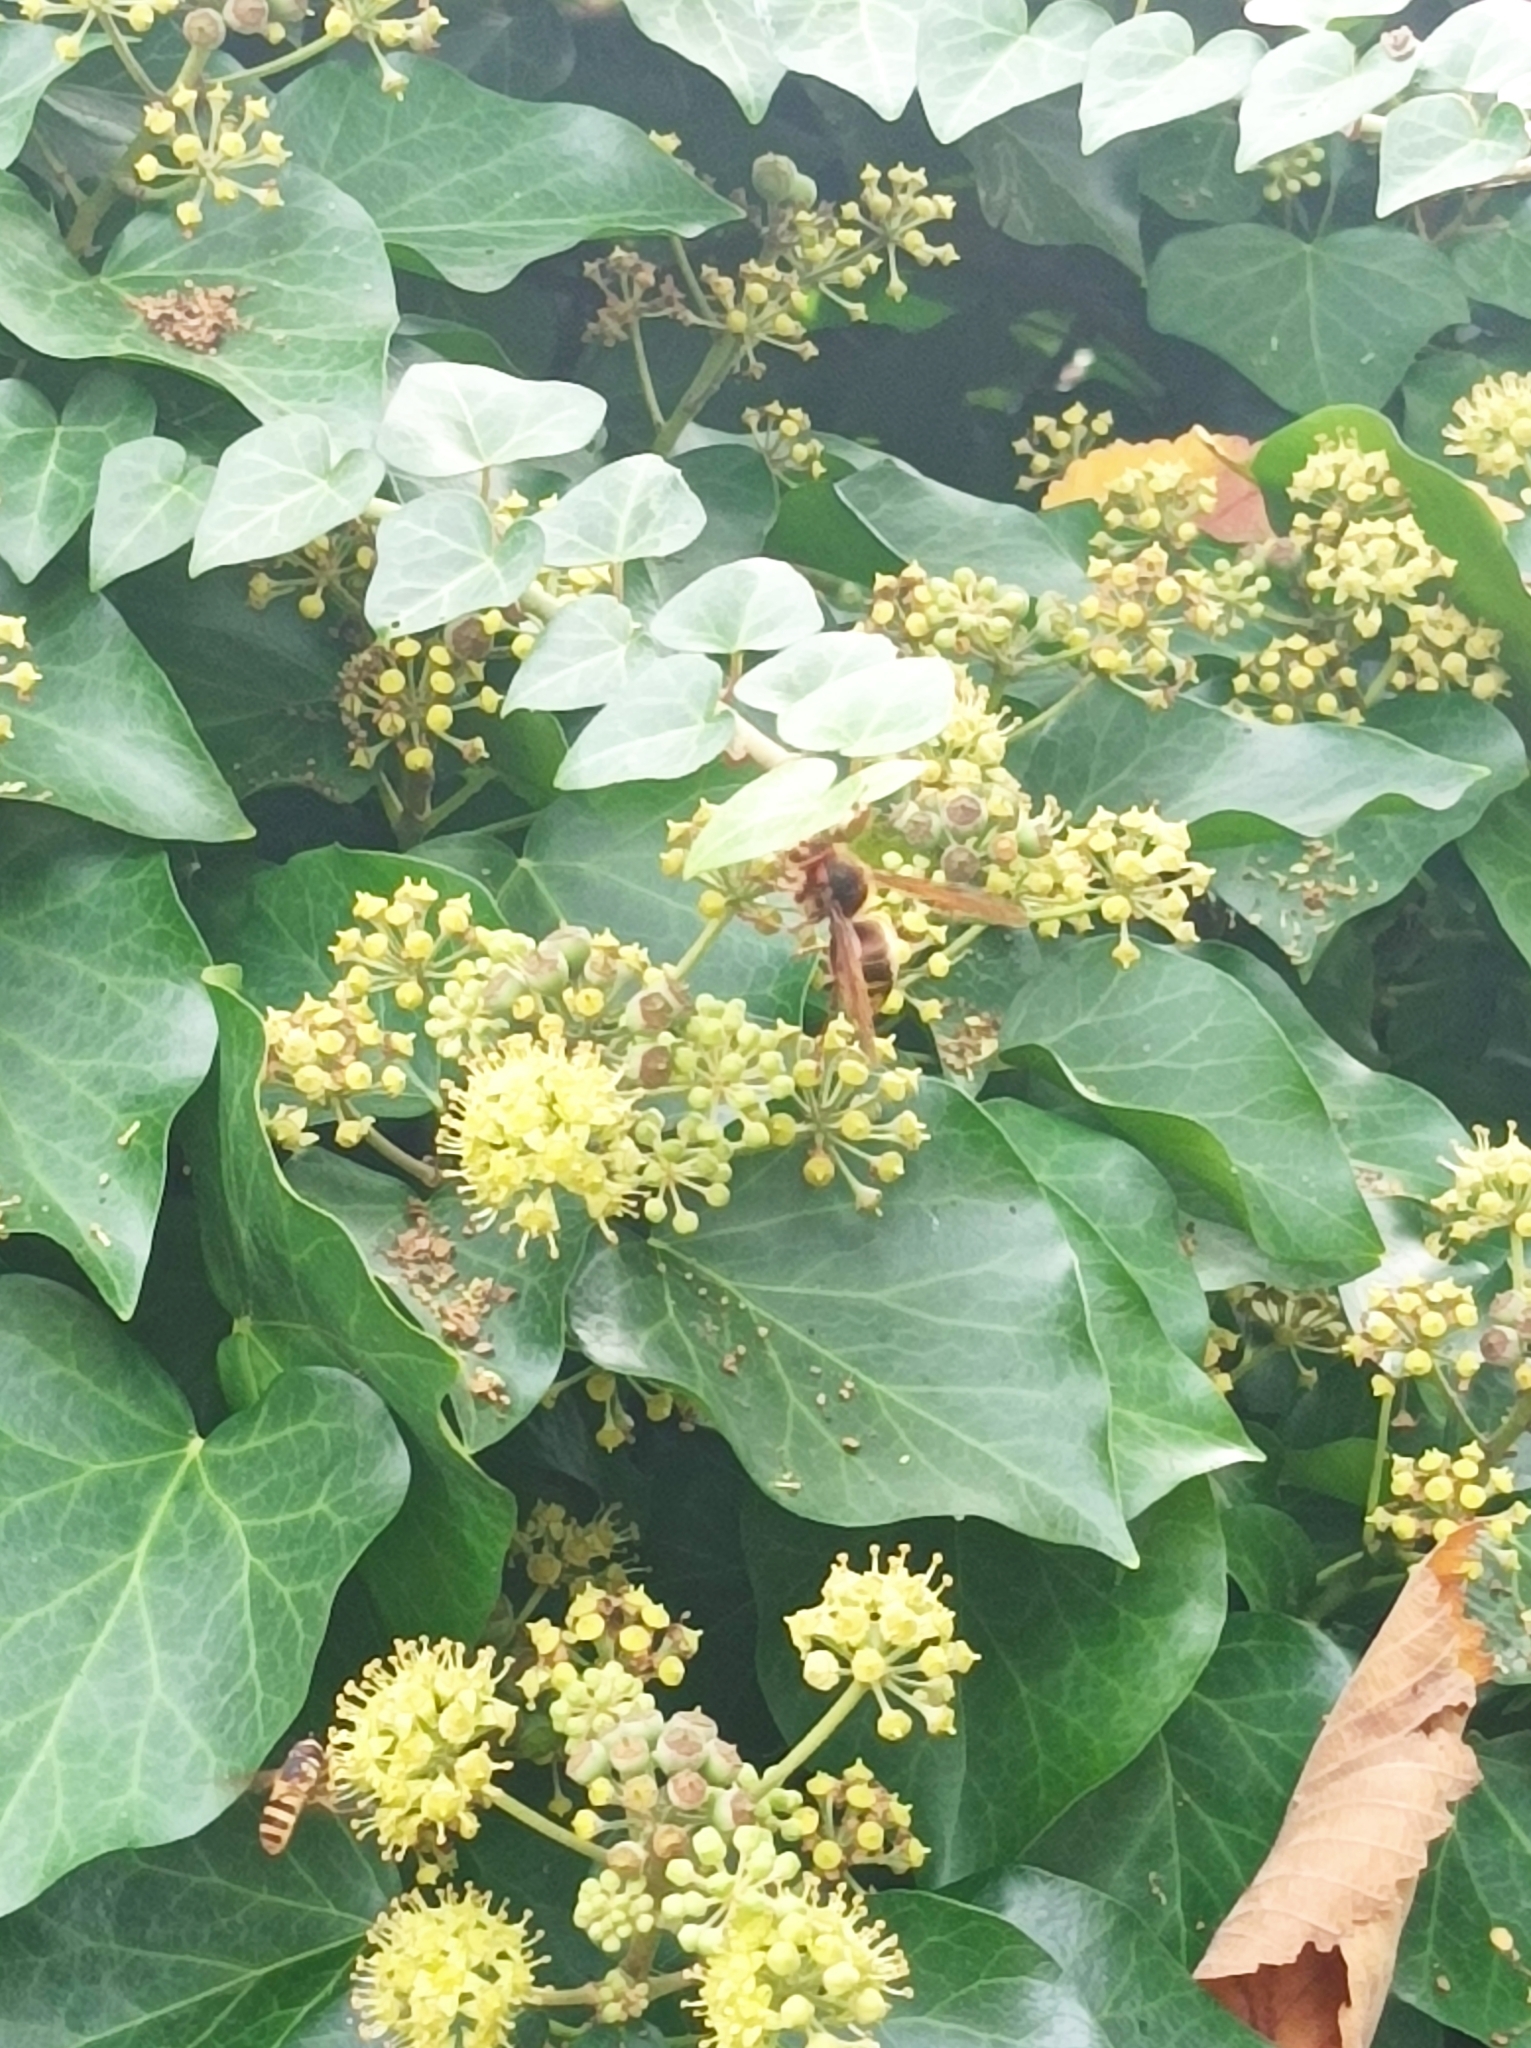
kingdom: Animalia
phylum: Arthropoda
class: Insecta
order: Hymenoptera
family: Vespidae
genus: Vespa
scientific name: Vespa crabro
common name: Hornet
